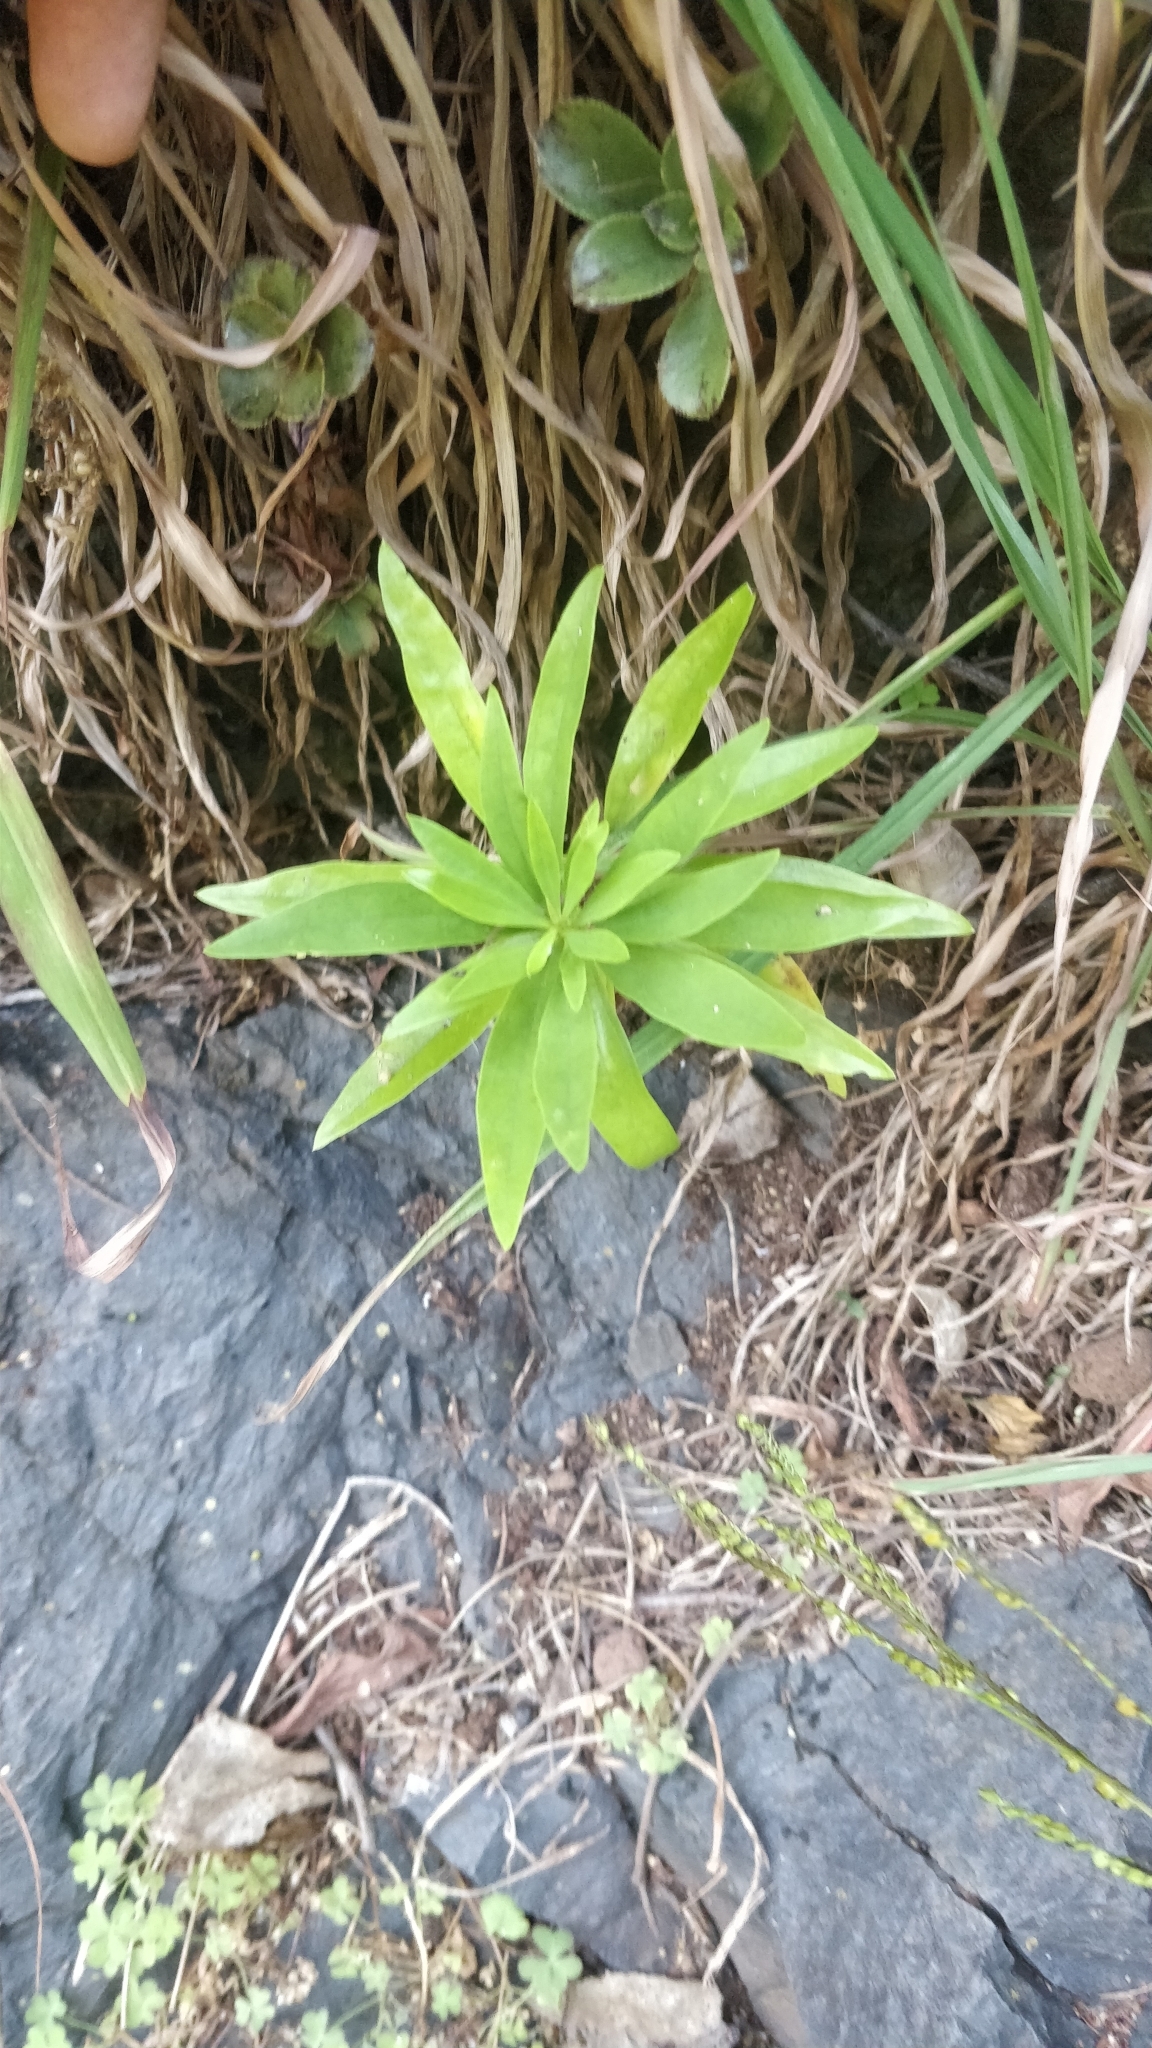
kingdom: Plantae
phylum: Tracheophyta
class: Magnoliopsida
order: Lamiales
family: Plantaginaceae
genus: Globularia
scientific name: Globularia salicina
